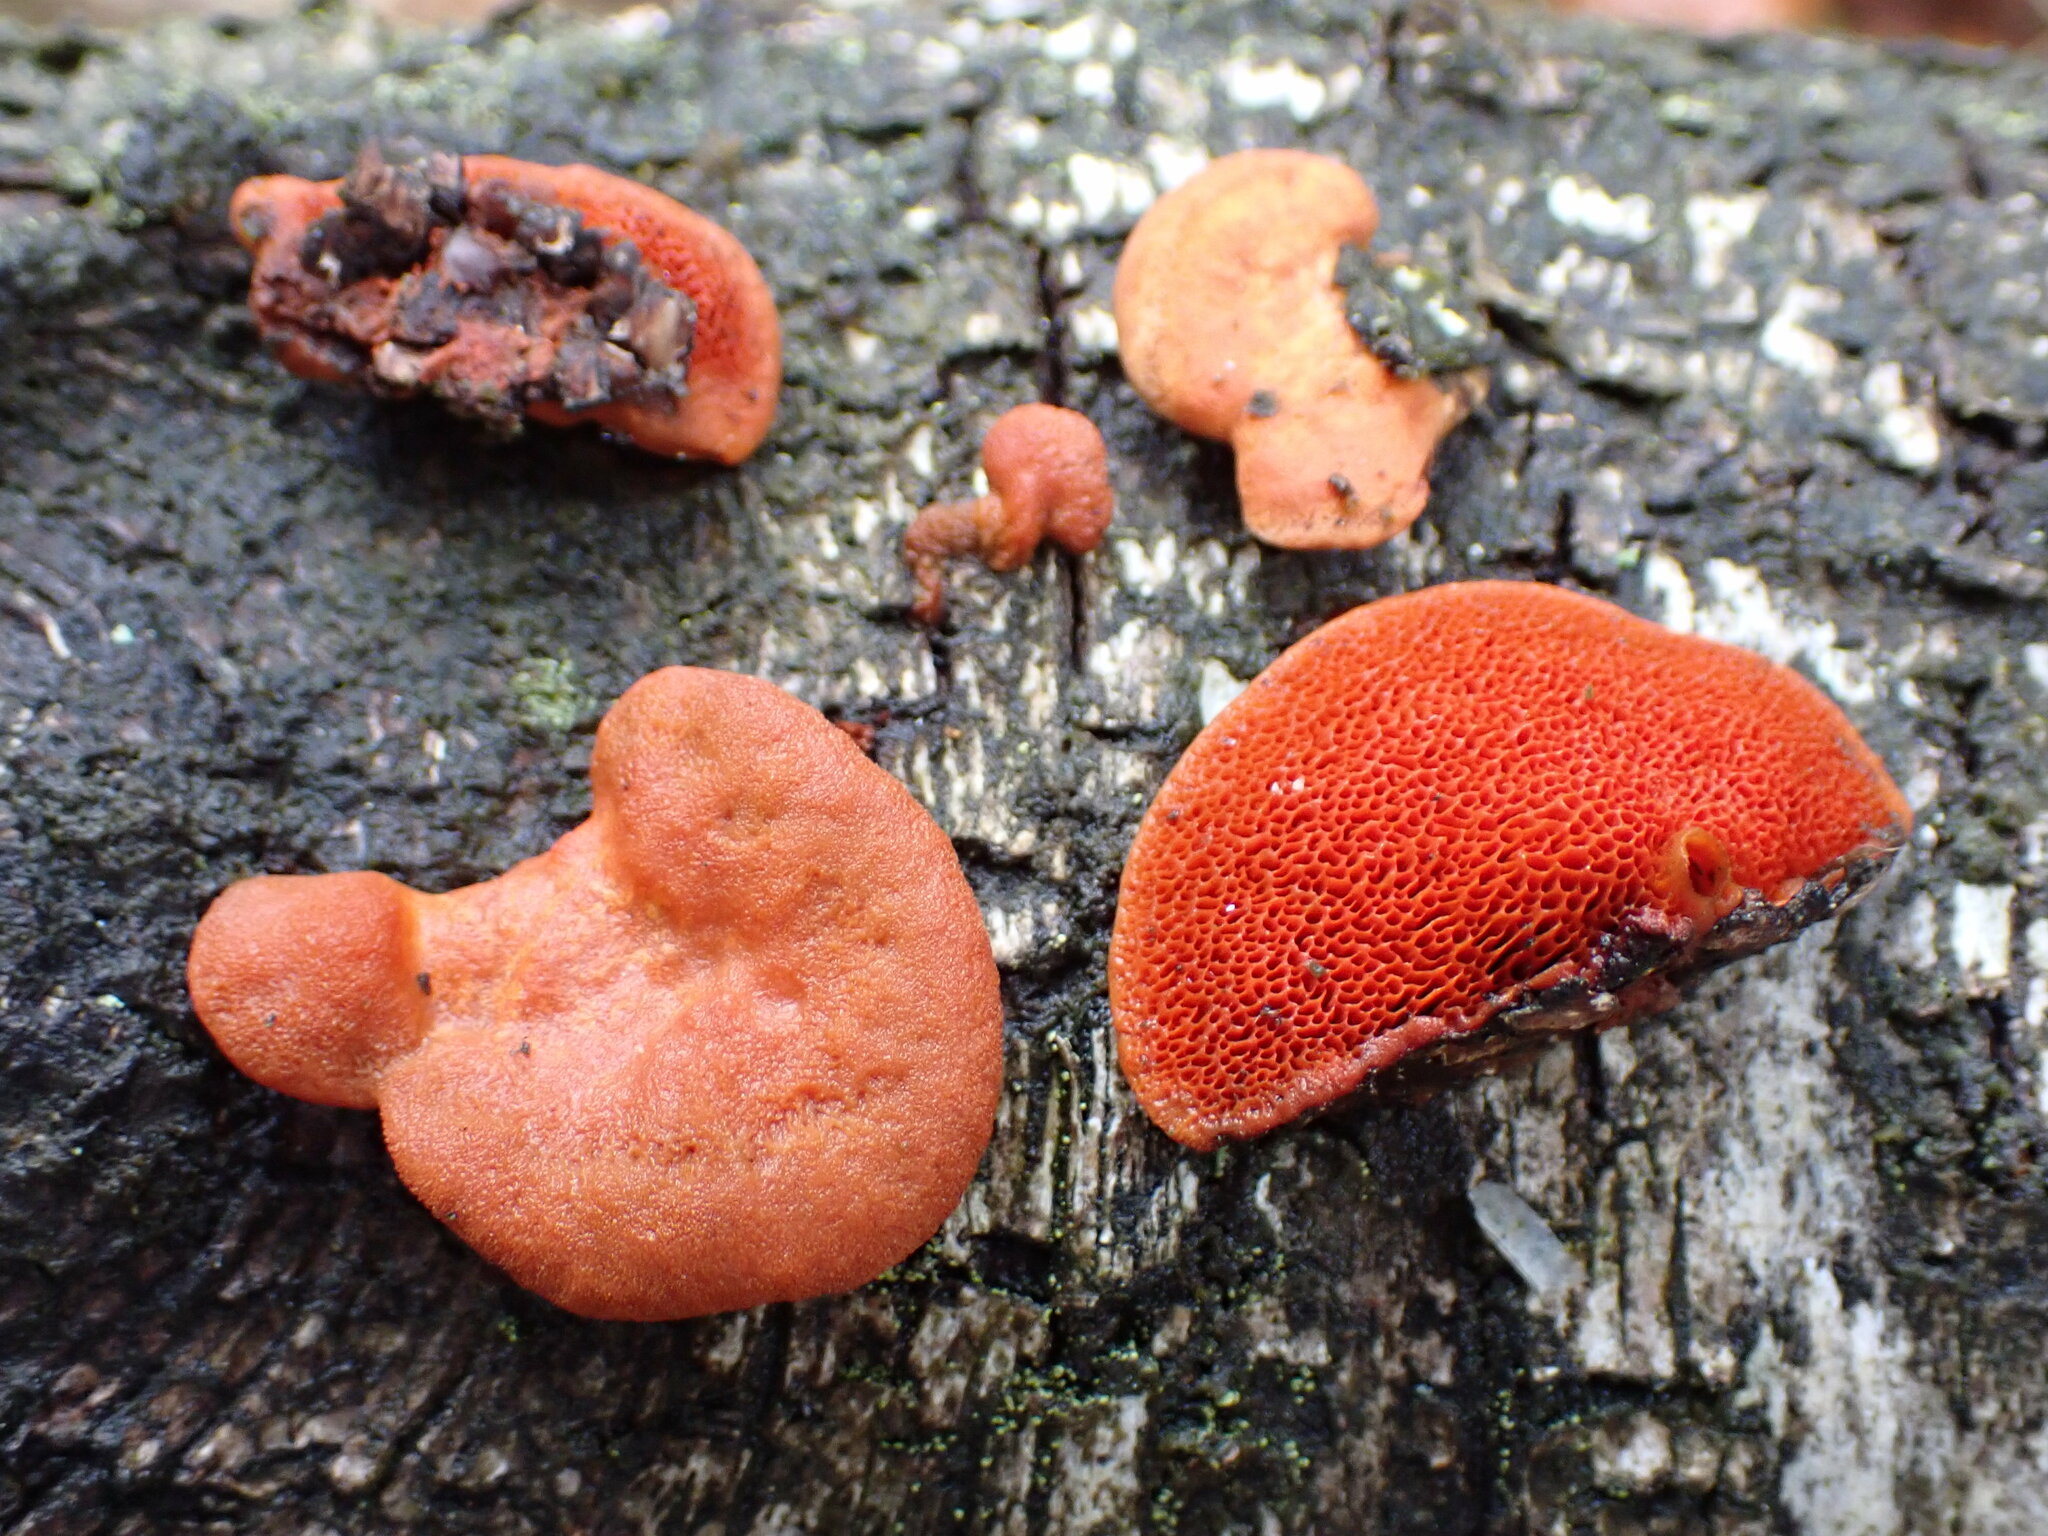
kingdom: Fungi
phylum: Basidiomycota
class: Agaricomycetes
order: Polyporales
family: Polyporaceae
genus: Trametes
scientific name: Trametes cinnabarina
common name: Northern cinnabar polypore
